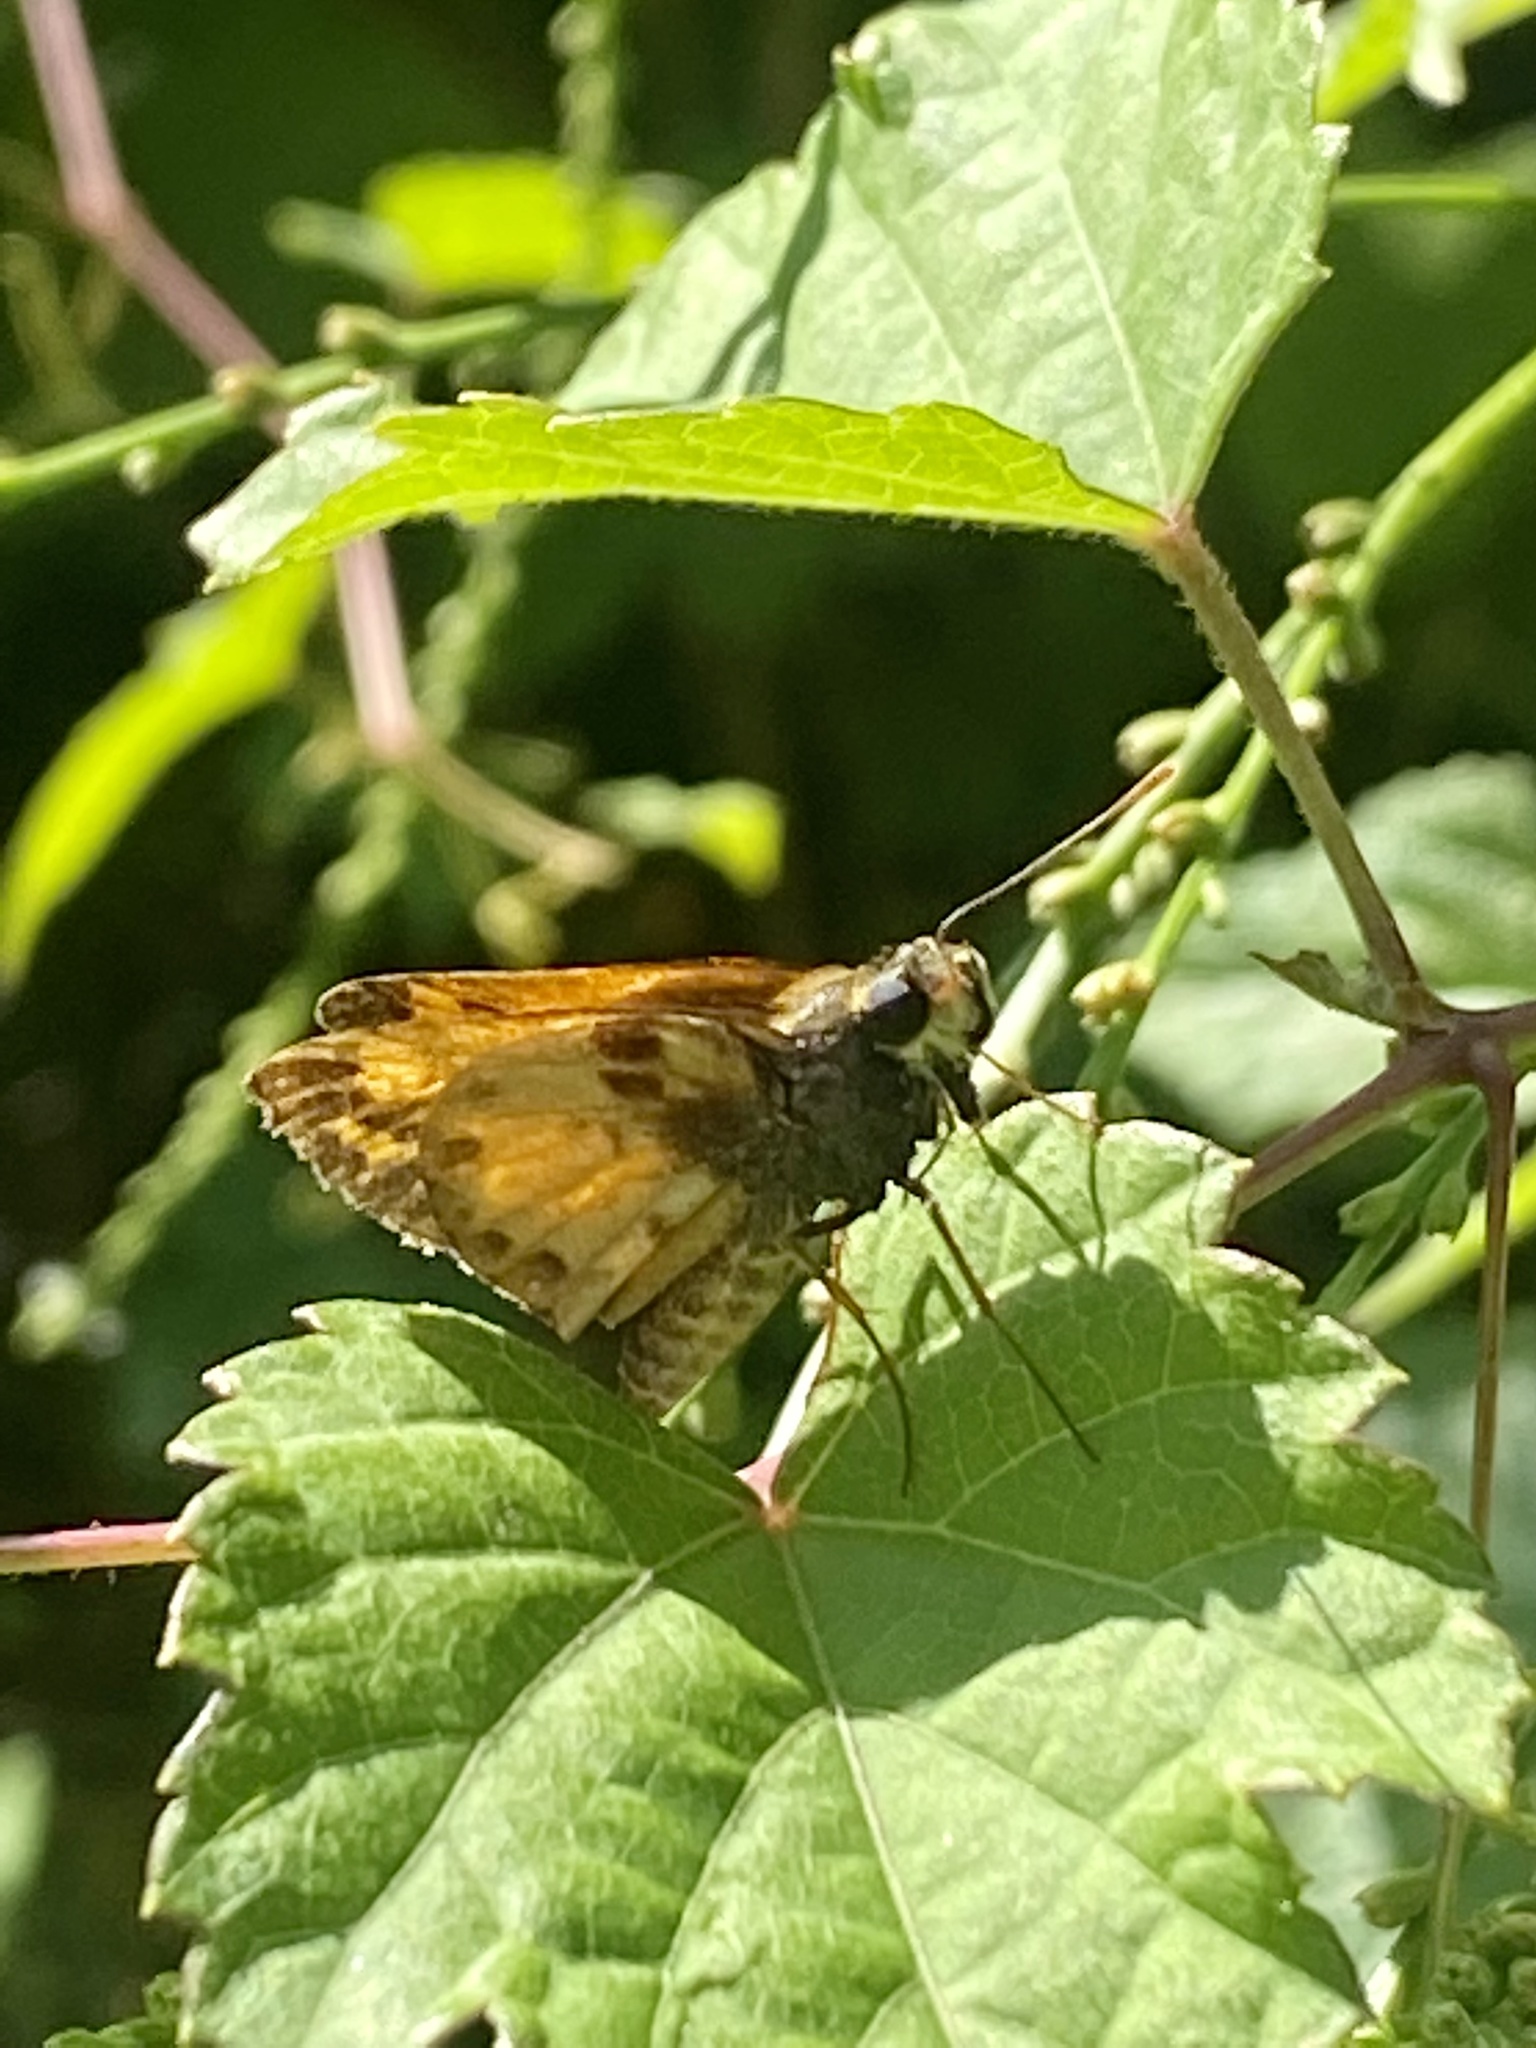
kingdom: Animalia
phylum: Arthropoda
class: Insecta
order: Lepidoptera
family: Hesperiidae
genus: Lon
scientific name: Lon zabulon
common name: Zabulon skipper
